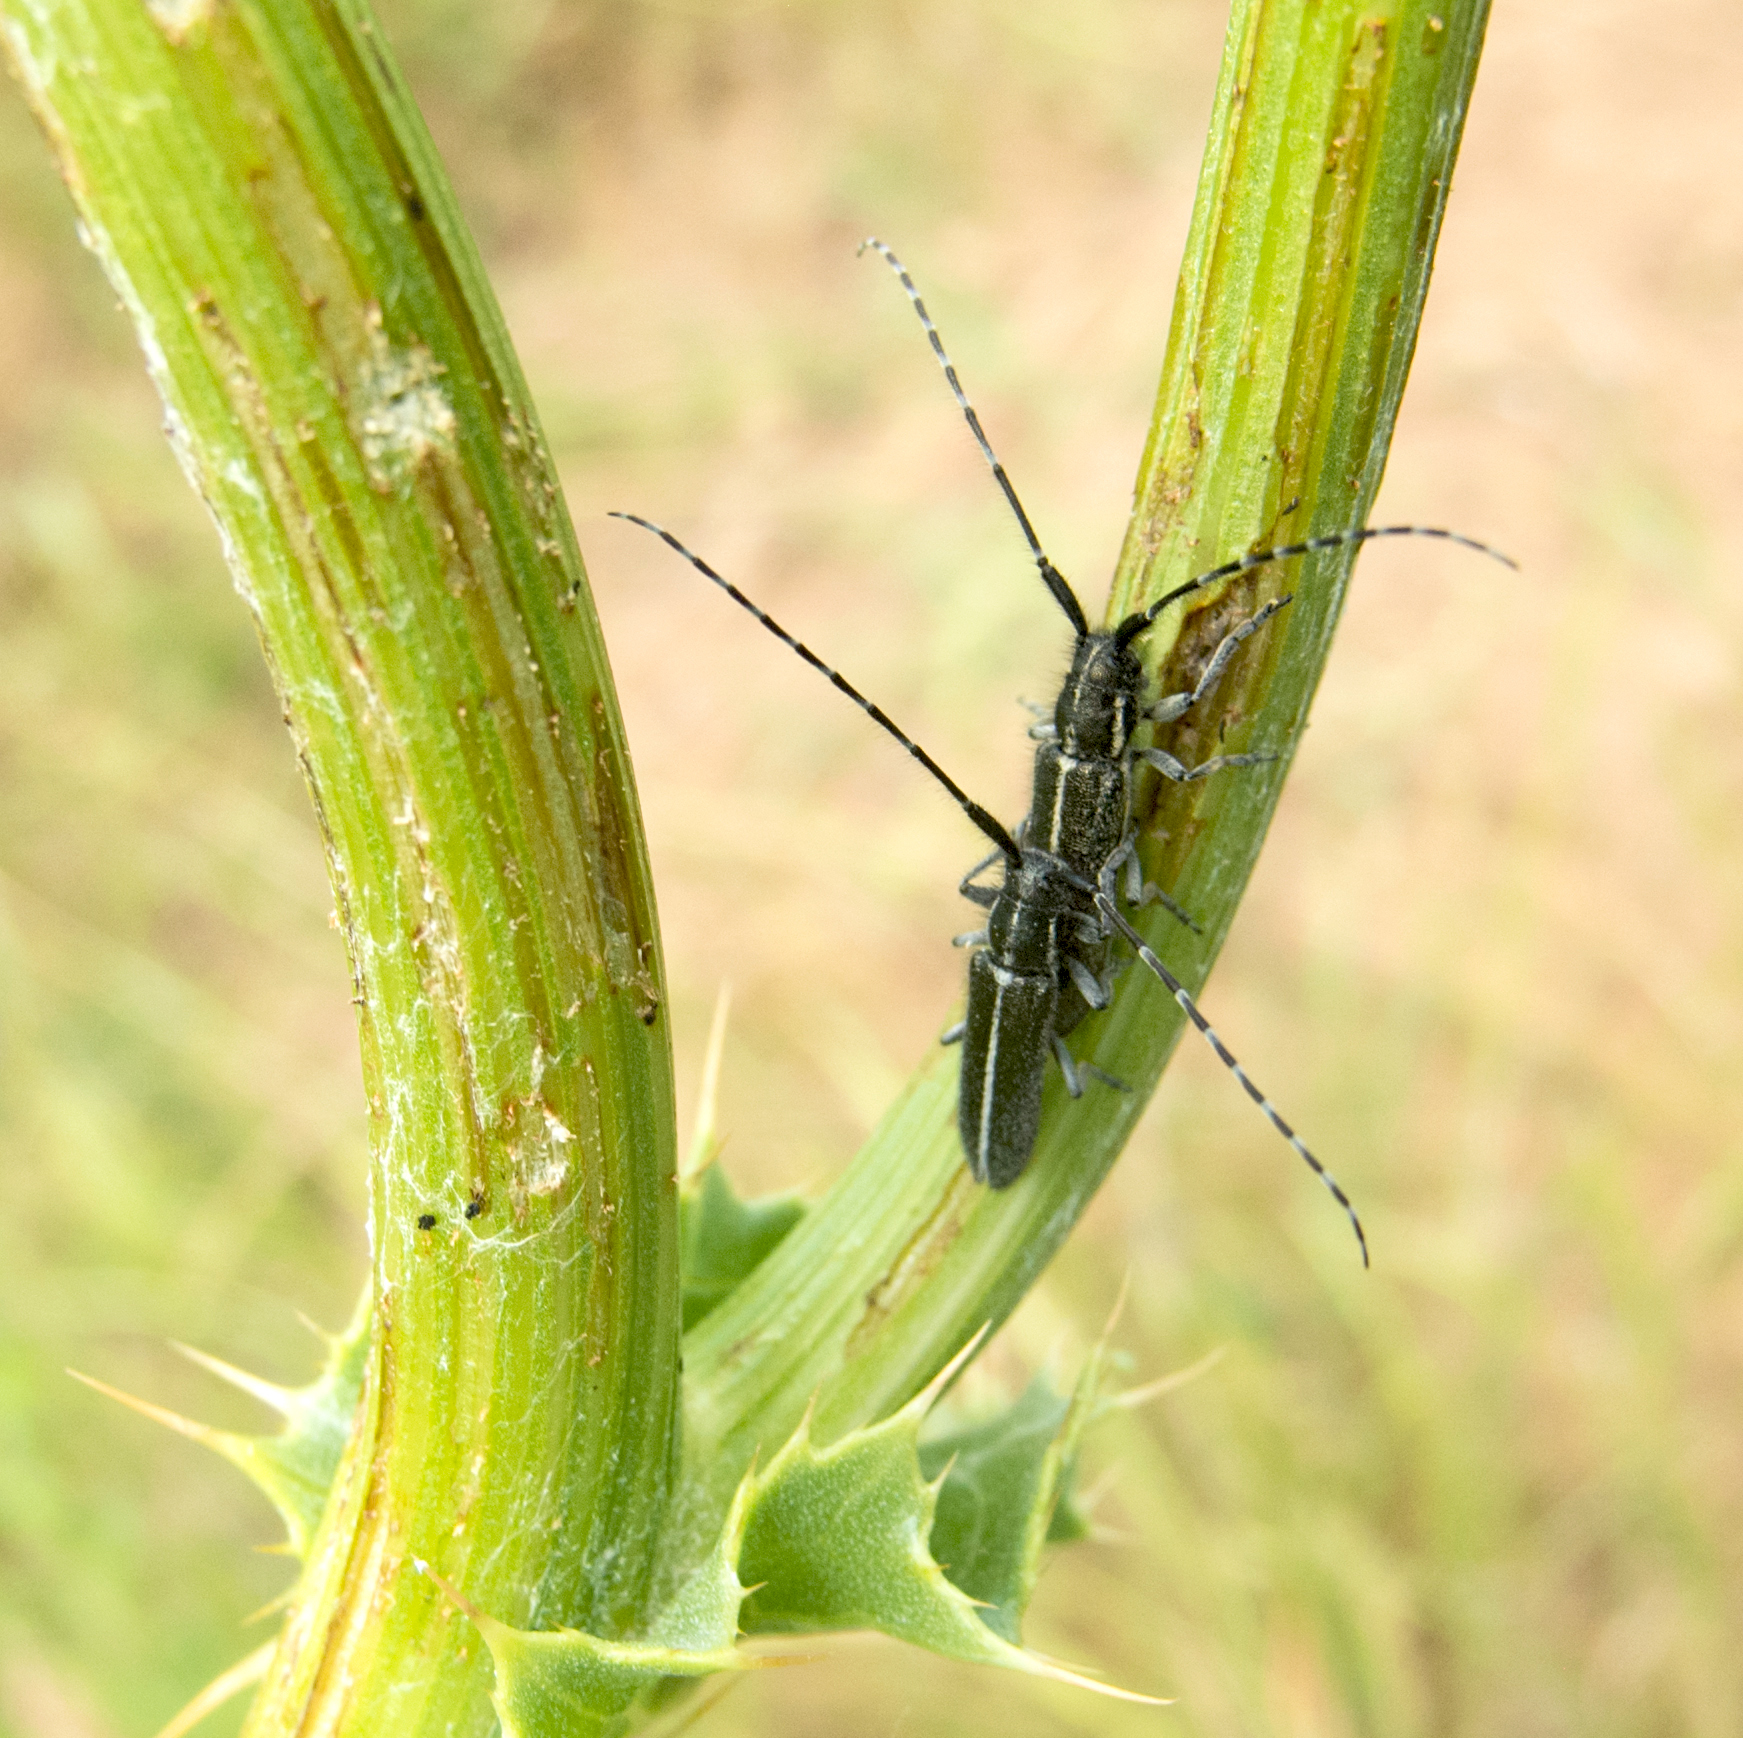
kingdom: Animalia
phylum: Arthropoda
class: Insecta
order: Coleoptera
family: Cerambycidae
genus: Agapanthia
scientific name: Agapanthia cardui
